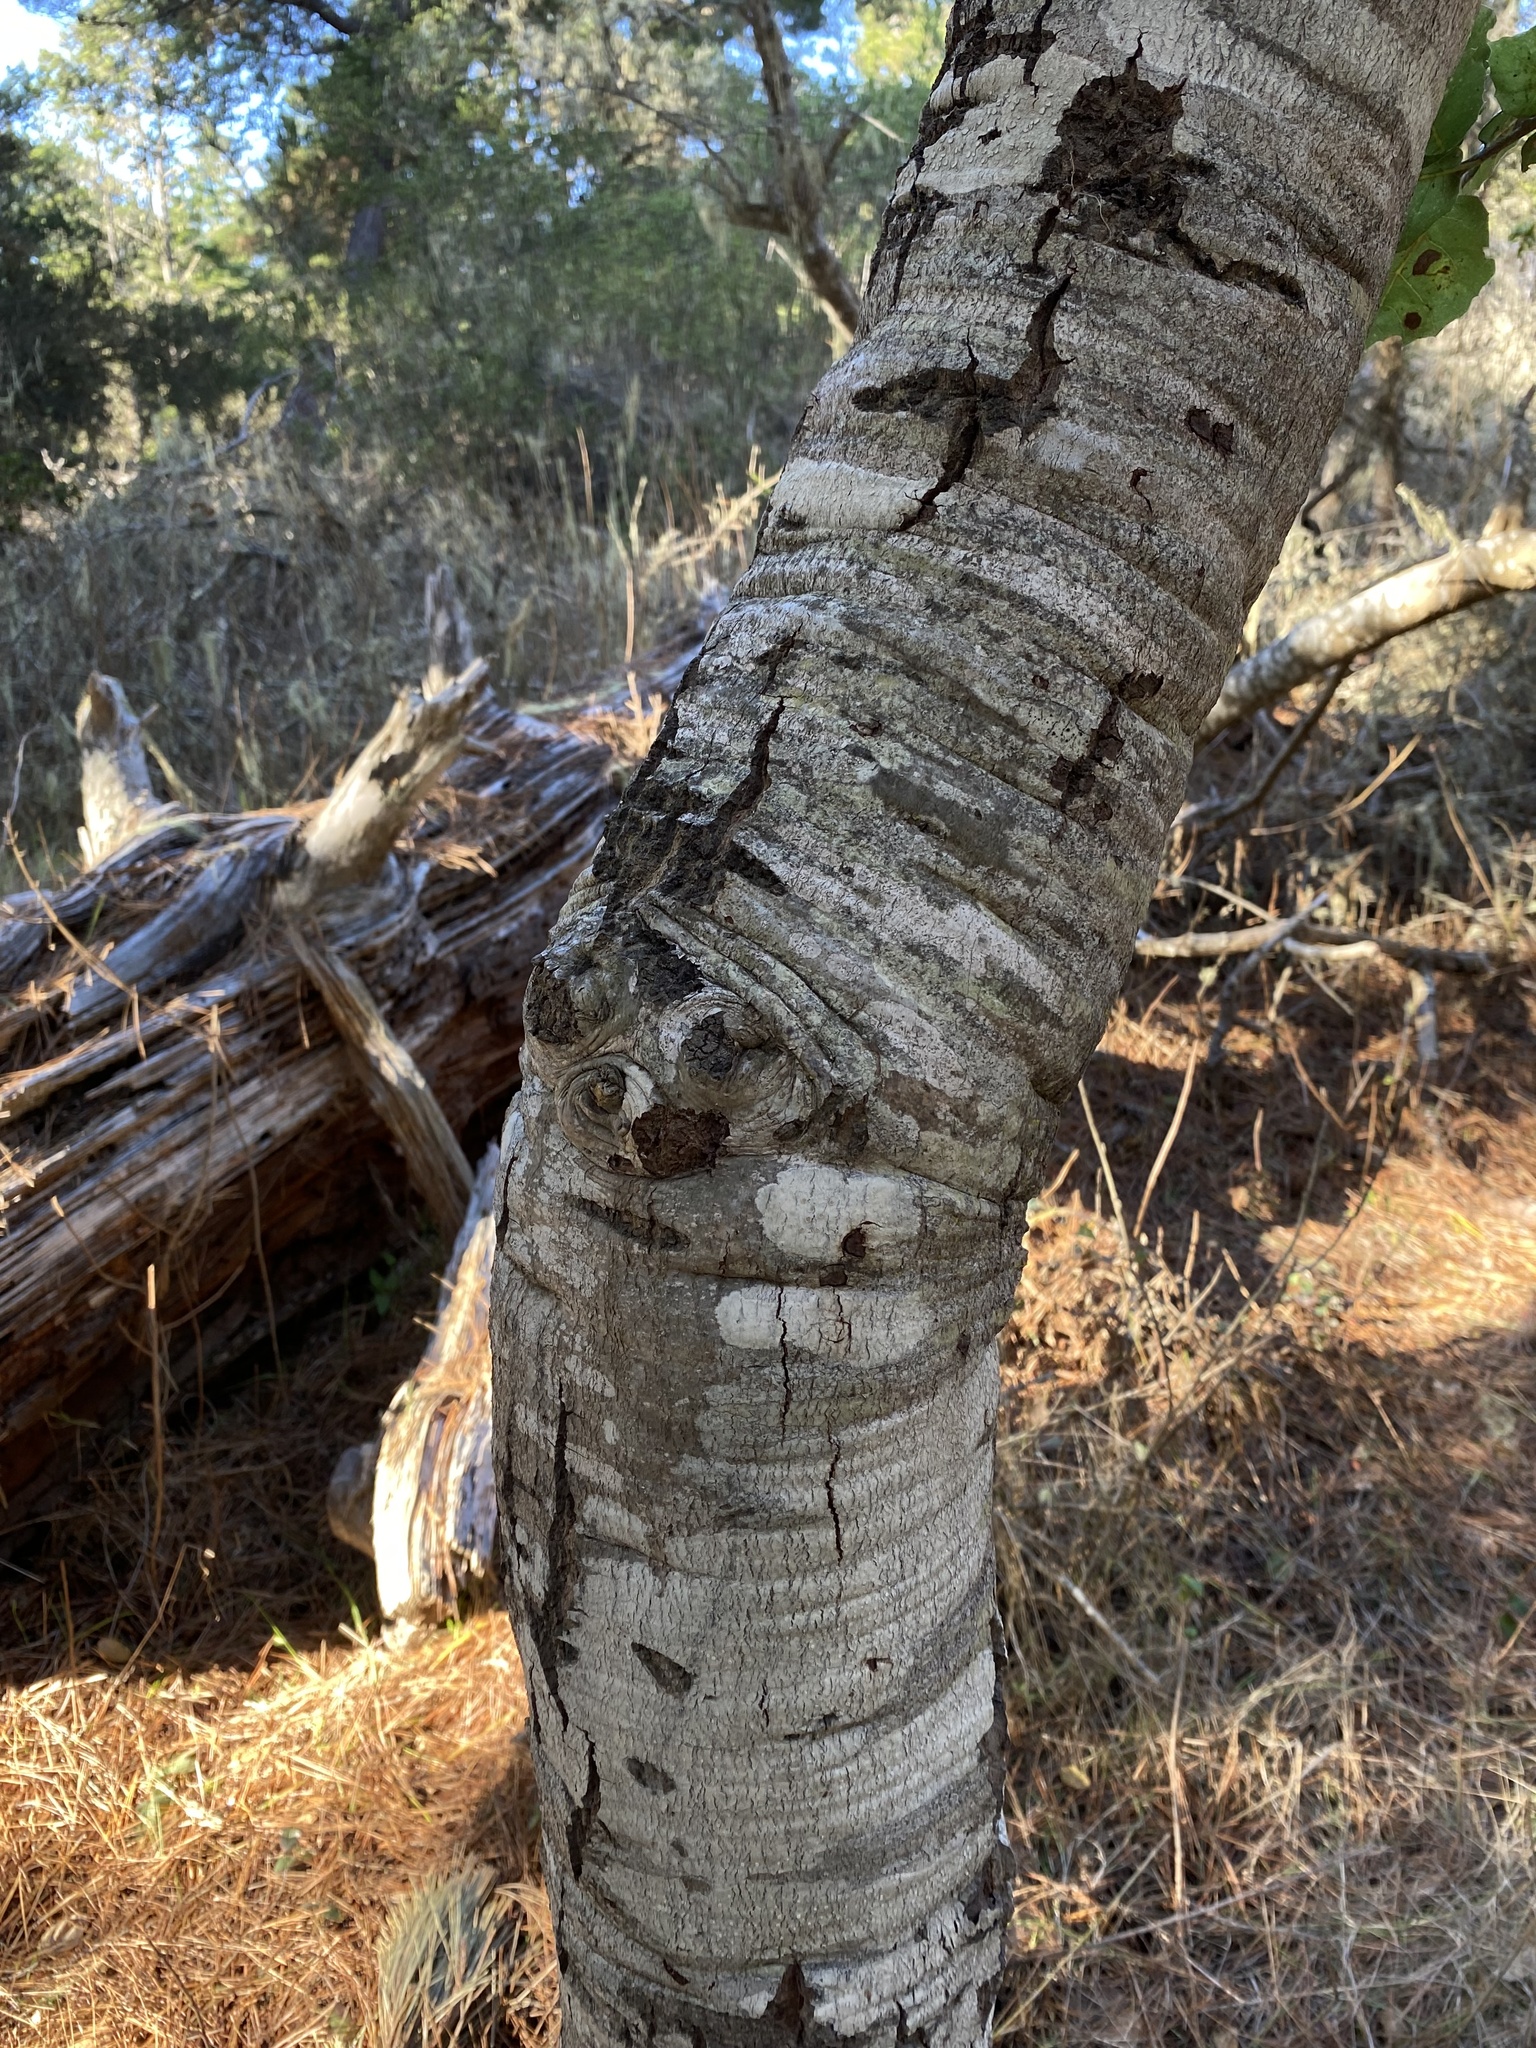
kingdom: Plantae
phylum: Tracheophyta
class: Magnoliopsida
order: Fagales
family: Fagaceae
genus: Quercus
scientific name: Quercus agrifolia
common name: California live oak
